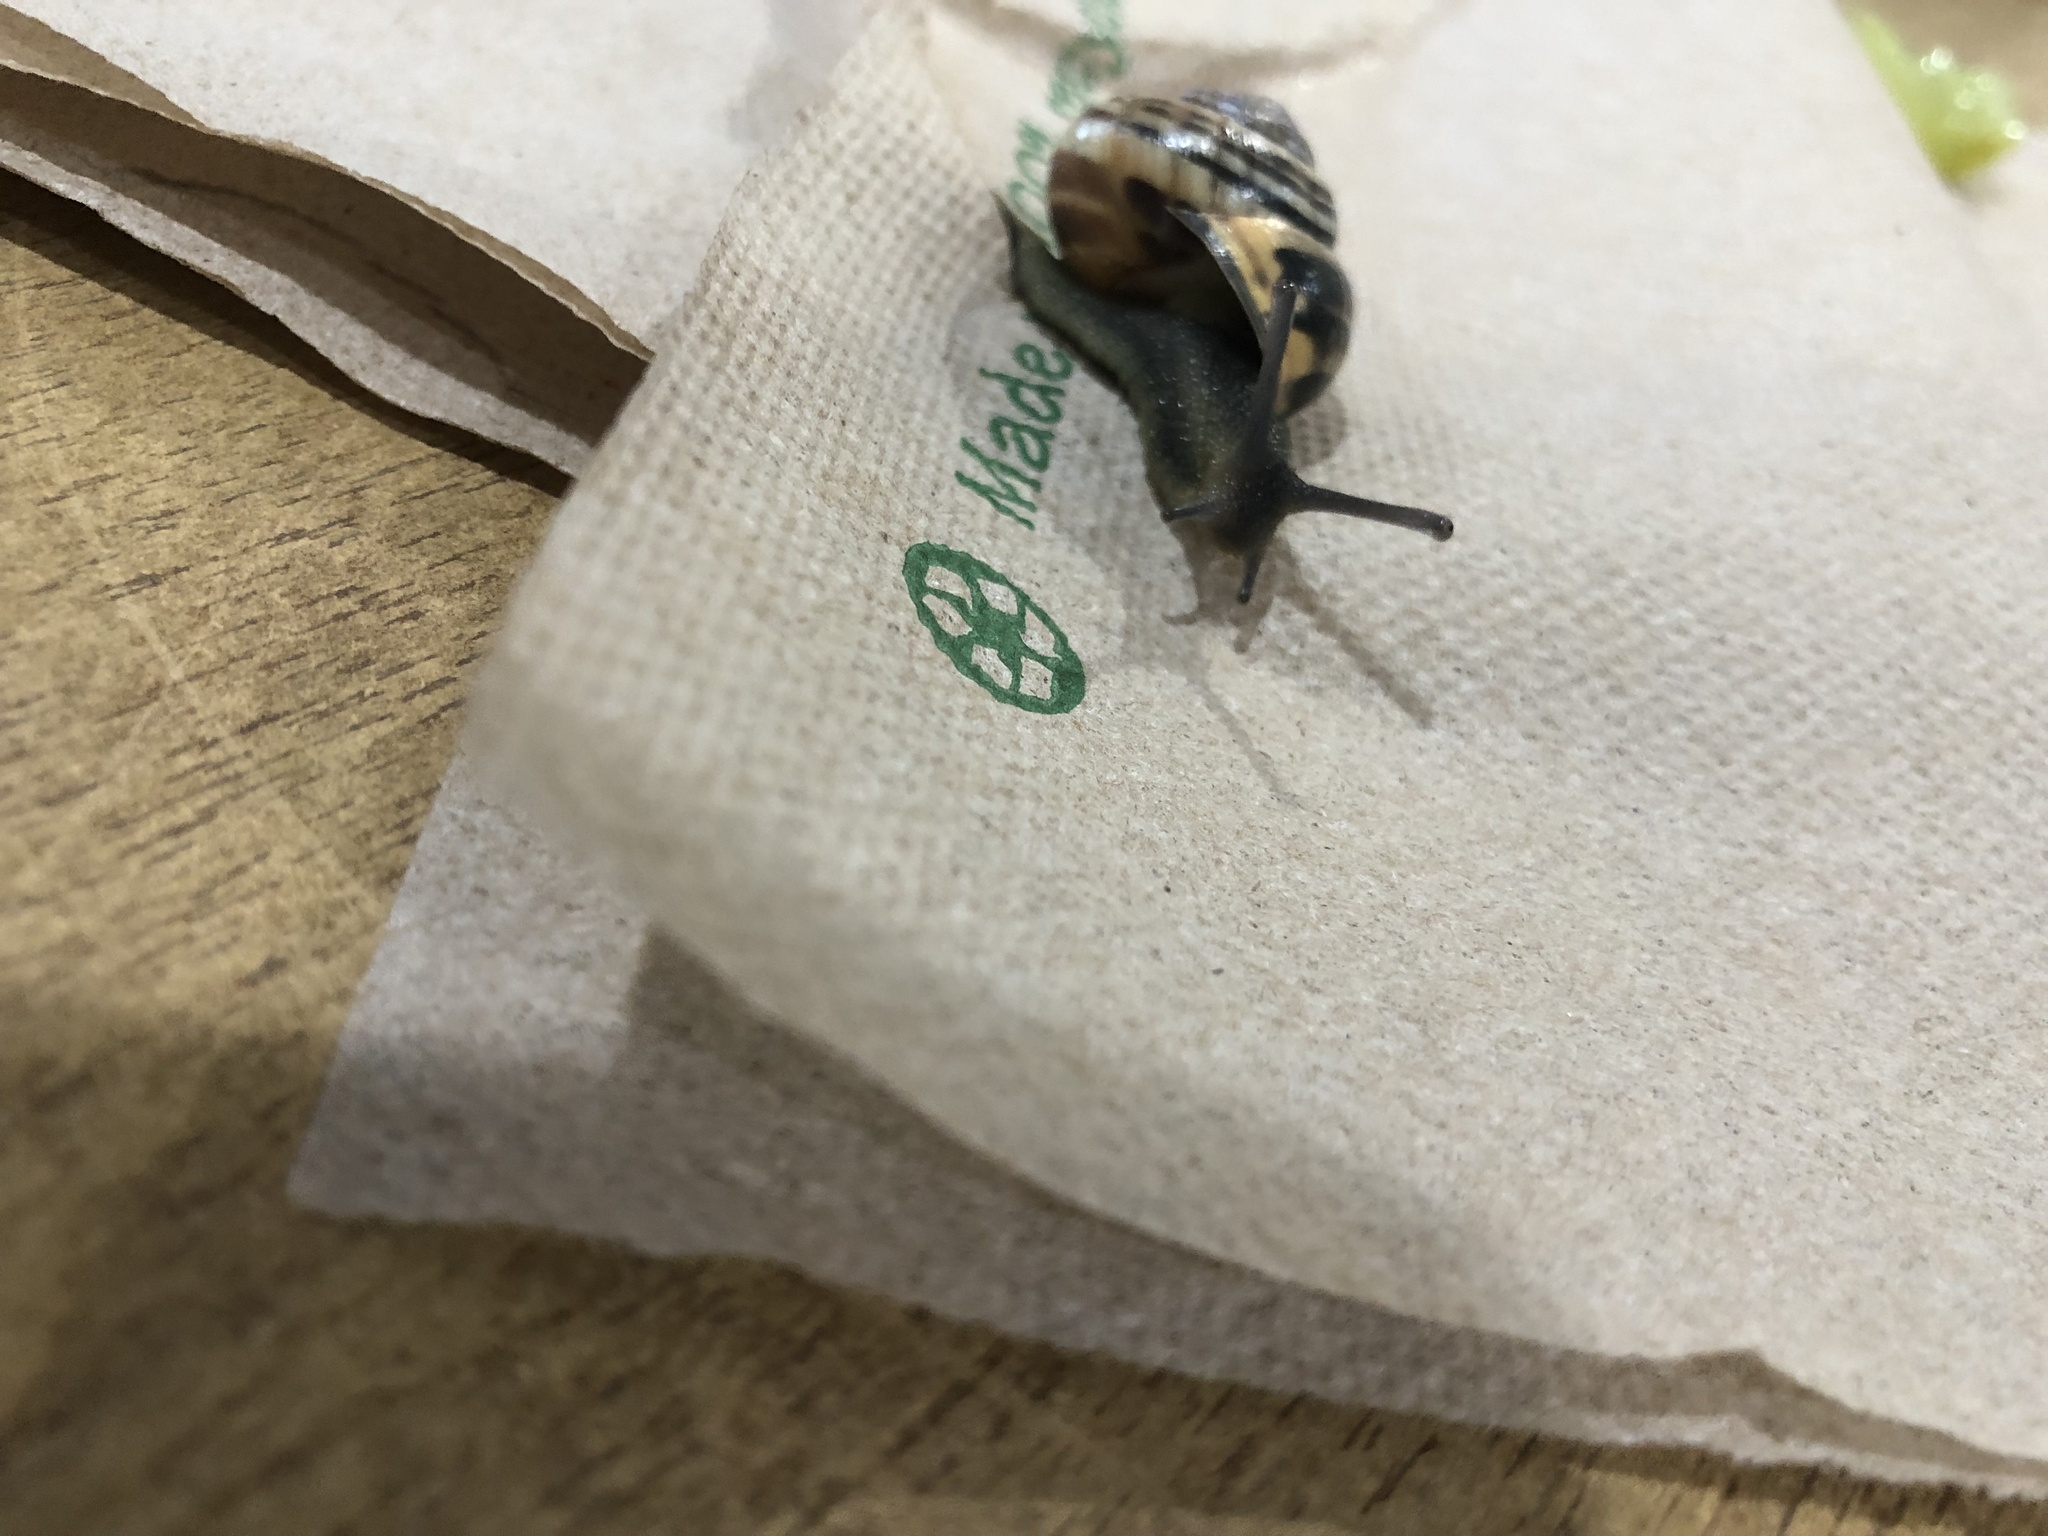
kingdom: Animalia
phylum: Mollusca
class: Gastropoda
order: Stylommatophora
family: Helicidae
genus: Cepaea
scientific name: Cepaea nemoralis
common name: Grovesnail
